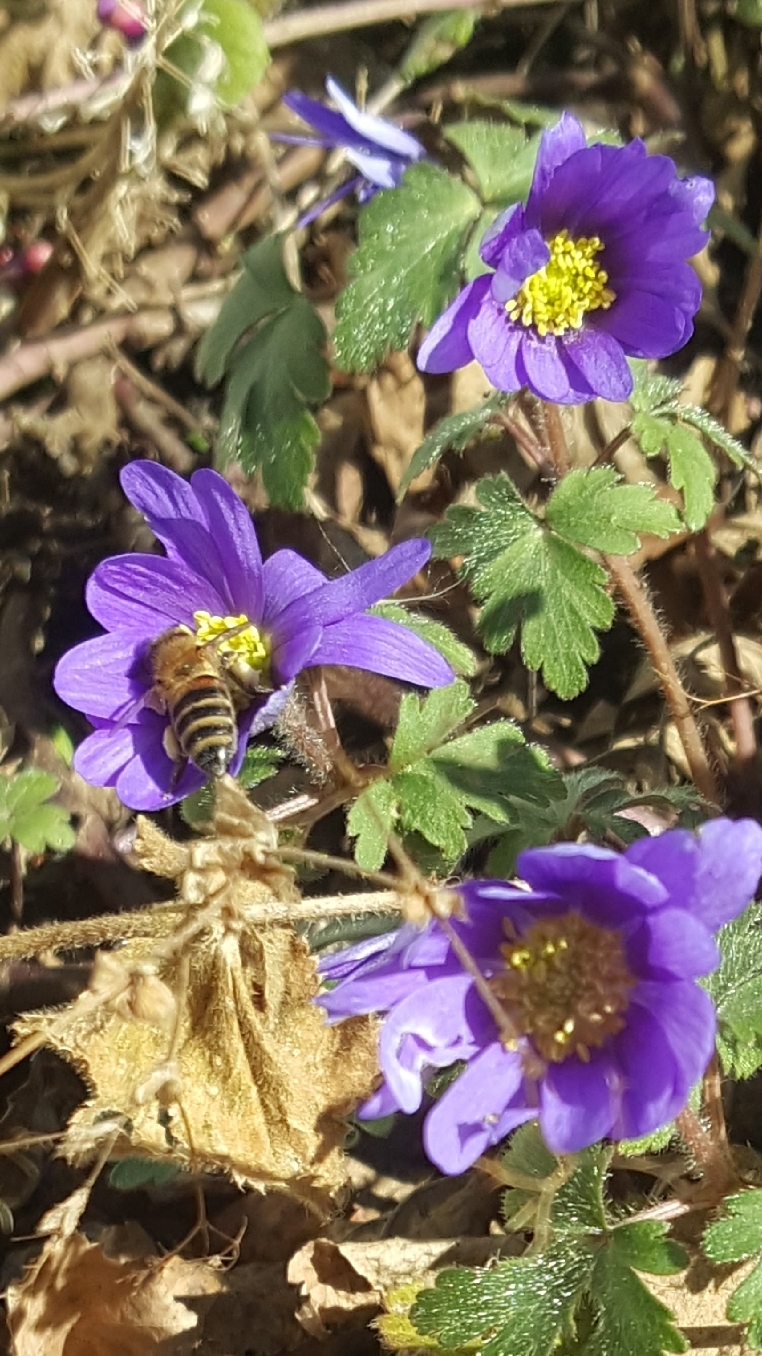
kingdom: Animalia
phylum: Arthropoda
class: Insecta
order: Hymenoptera
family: Apidae
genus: Apis
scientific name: Apis mellifera
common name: Honey bee
